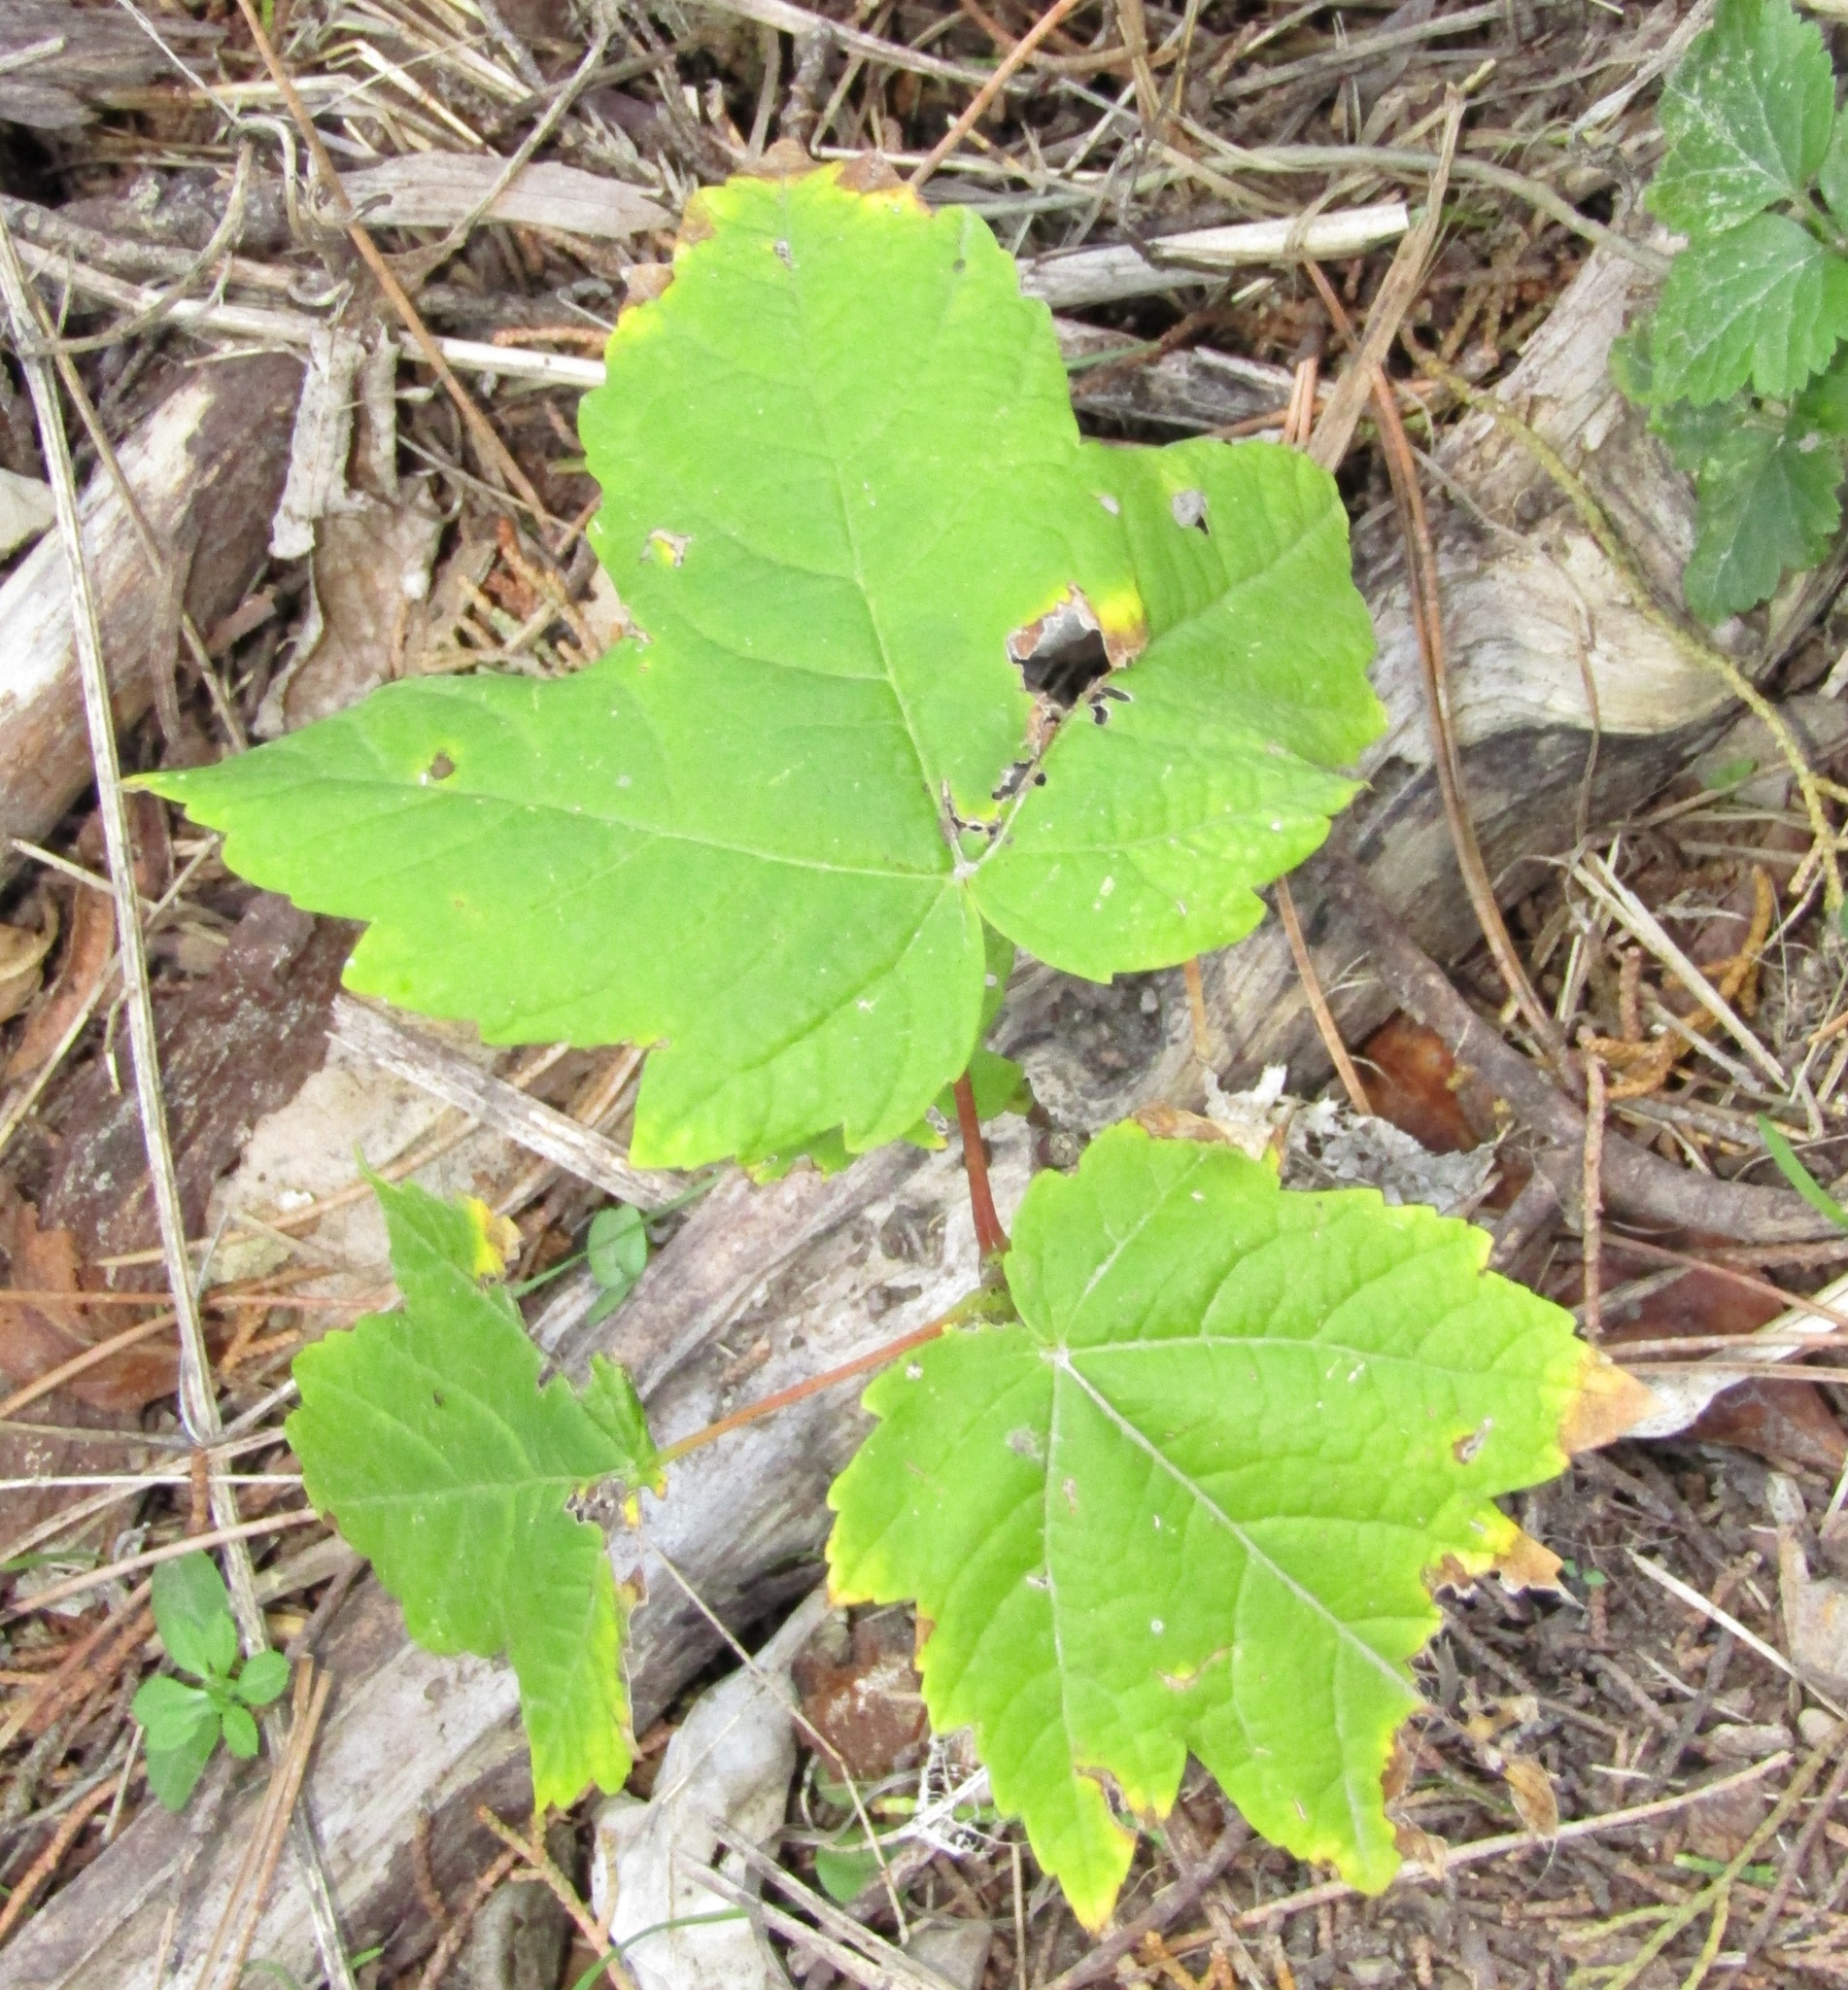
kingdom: Plantae
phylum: Tracheophyta
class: Magnoliopsida
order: Sapindales
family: Sapindaceae
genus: Acer
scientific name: Acer pseudoplatanus
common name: Sycamore
